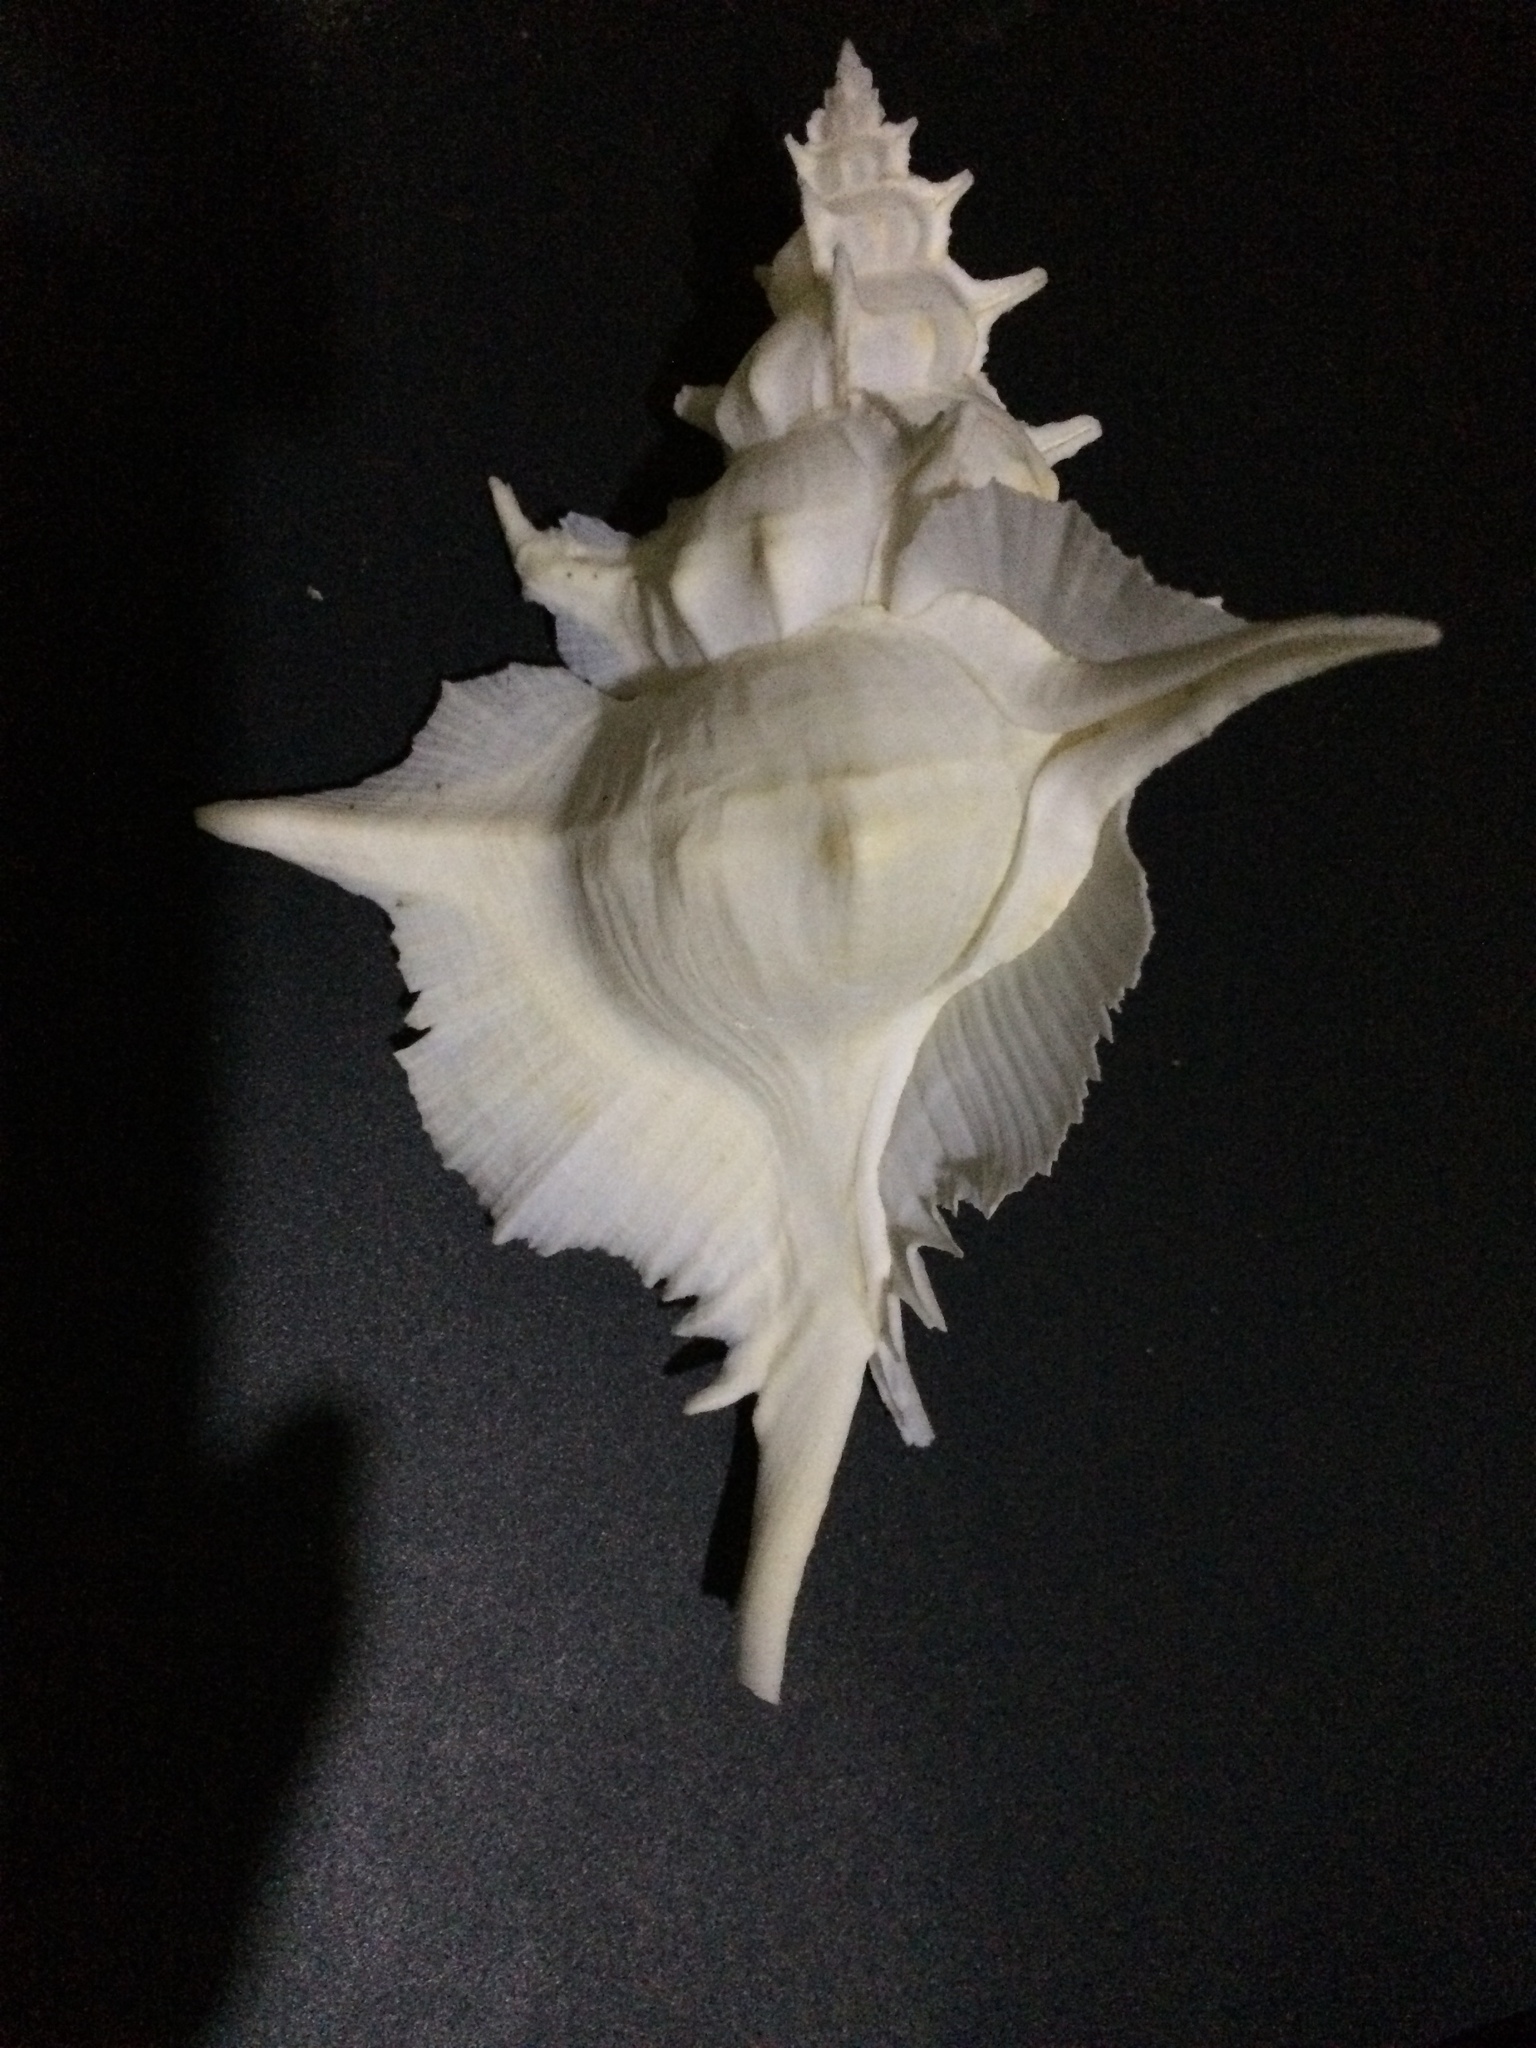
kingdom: Animalia
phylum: Mollusca
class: Gastropoda
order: Neogastropoda
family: Muricidae
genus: Siratus
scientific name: Siratus alabaster
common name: Abyssal murex
